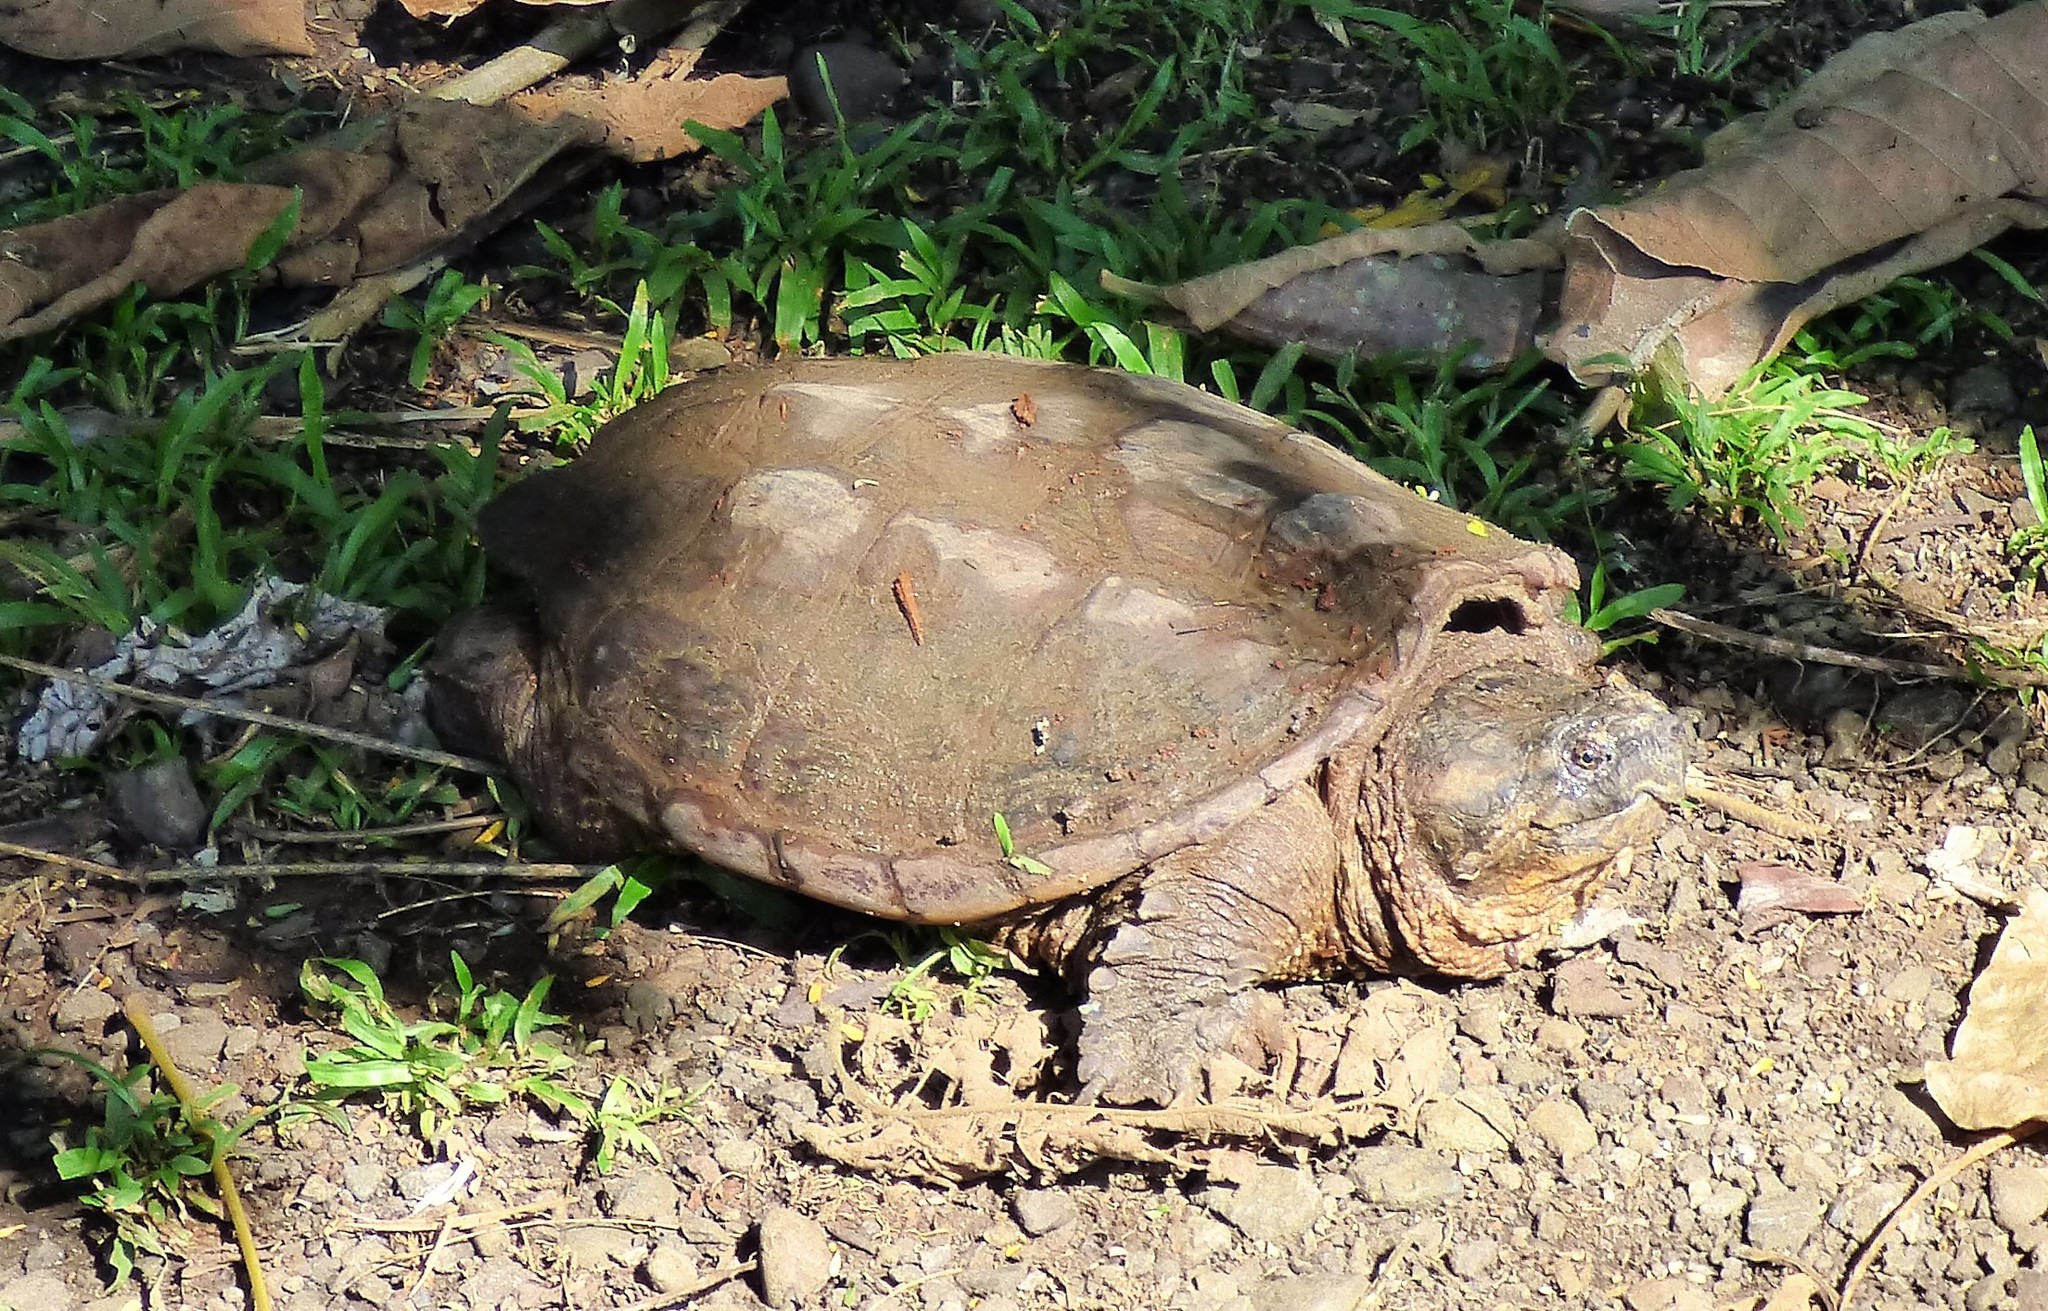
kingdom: Animalia
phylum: Chordata
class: Testudines
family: Chelydridae
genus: Chelydra
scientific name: Chelydra acutirostris
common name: South american snapping turtle
